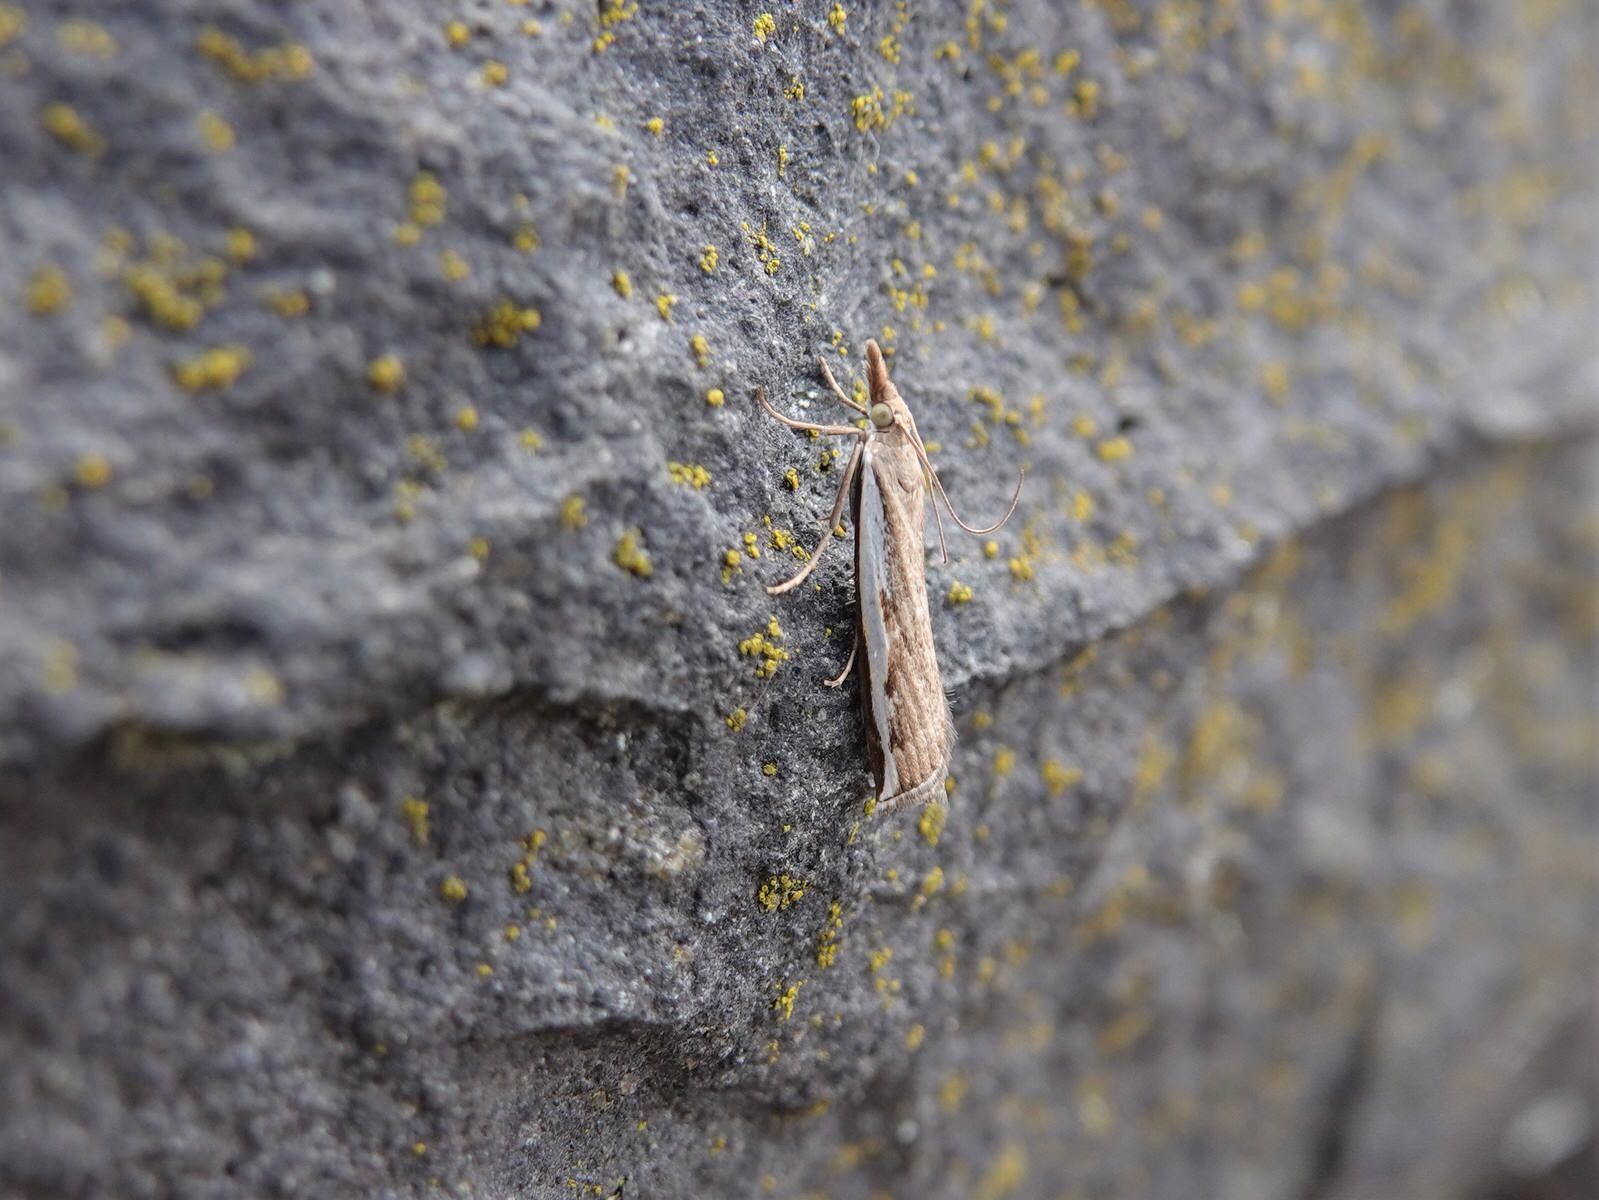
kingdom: Animalia
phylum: Arthropoda
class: Insecta
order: Lepidoptera
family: Crambidae
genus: Orocrambus
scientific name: Orocrambus flexuosellus
